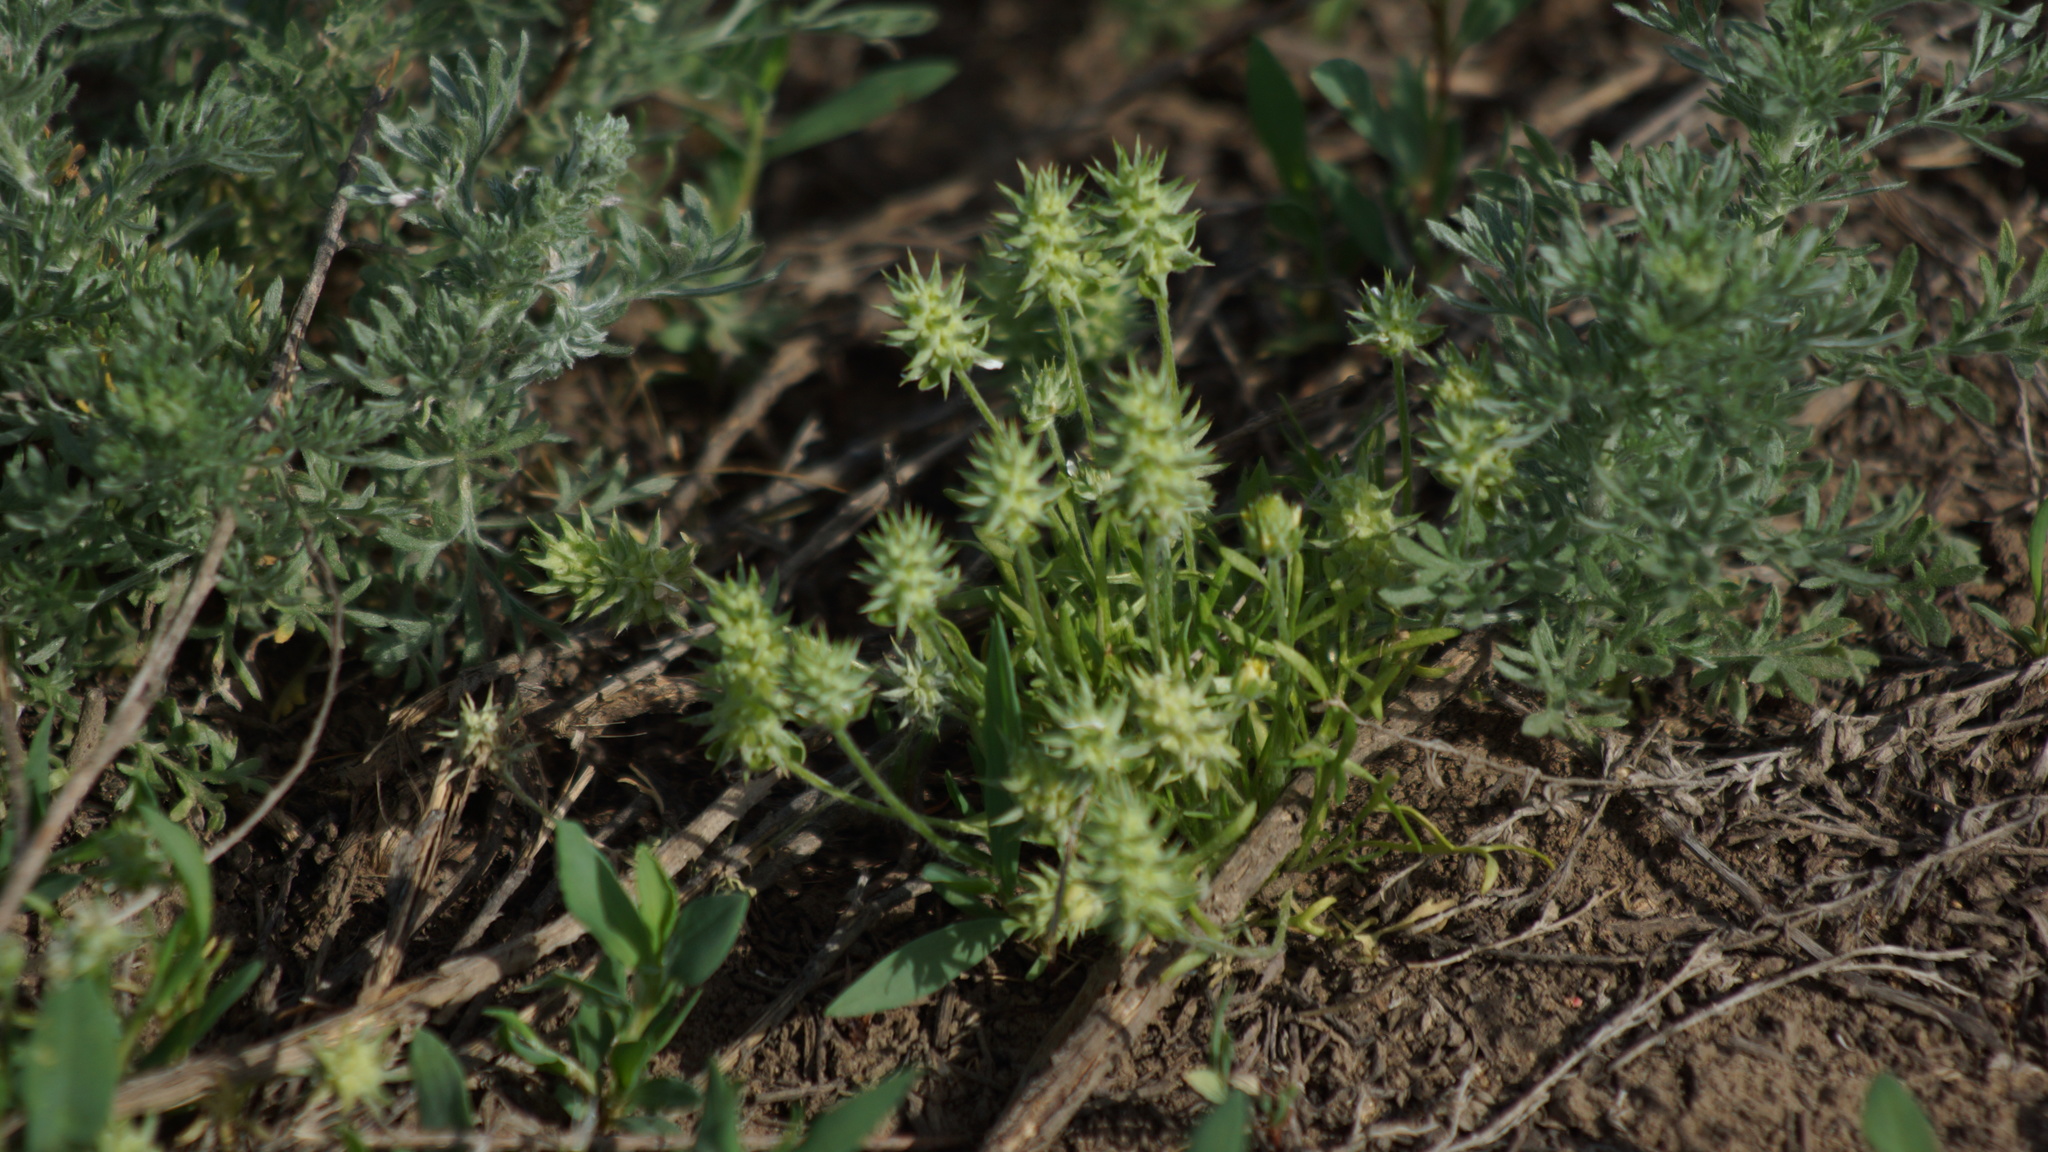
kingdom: Plantae
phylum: Tracheophyta
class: Magnoliopsida
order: Ranunculales
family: Ranunculaceae
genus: Ceratocephala
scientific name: Ceratocephala orthoceras
